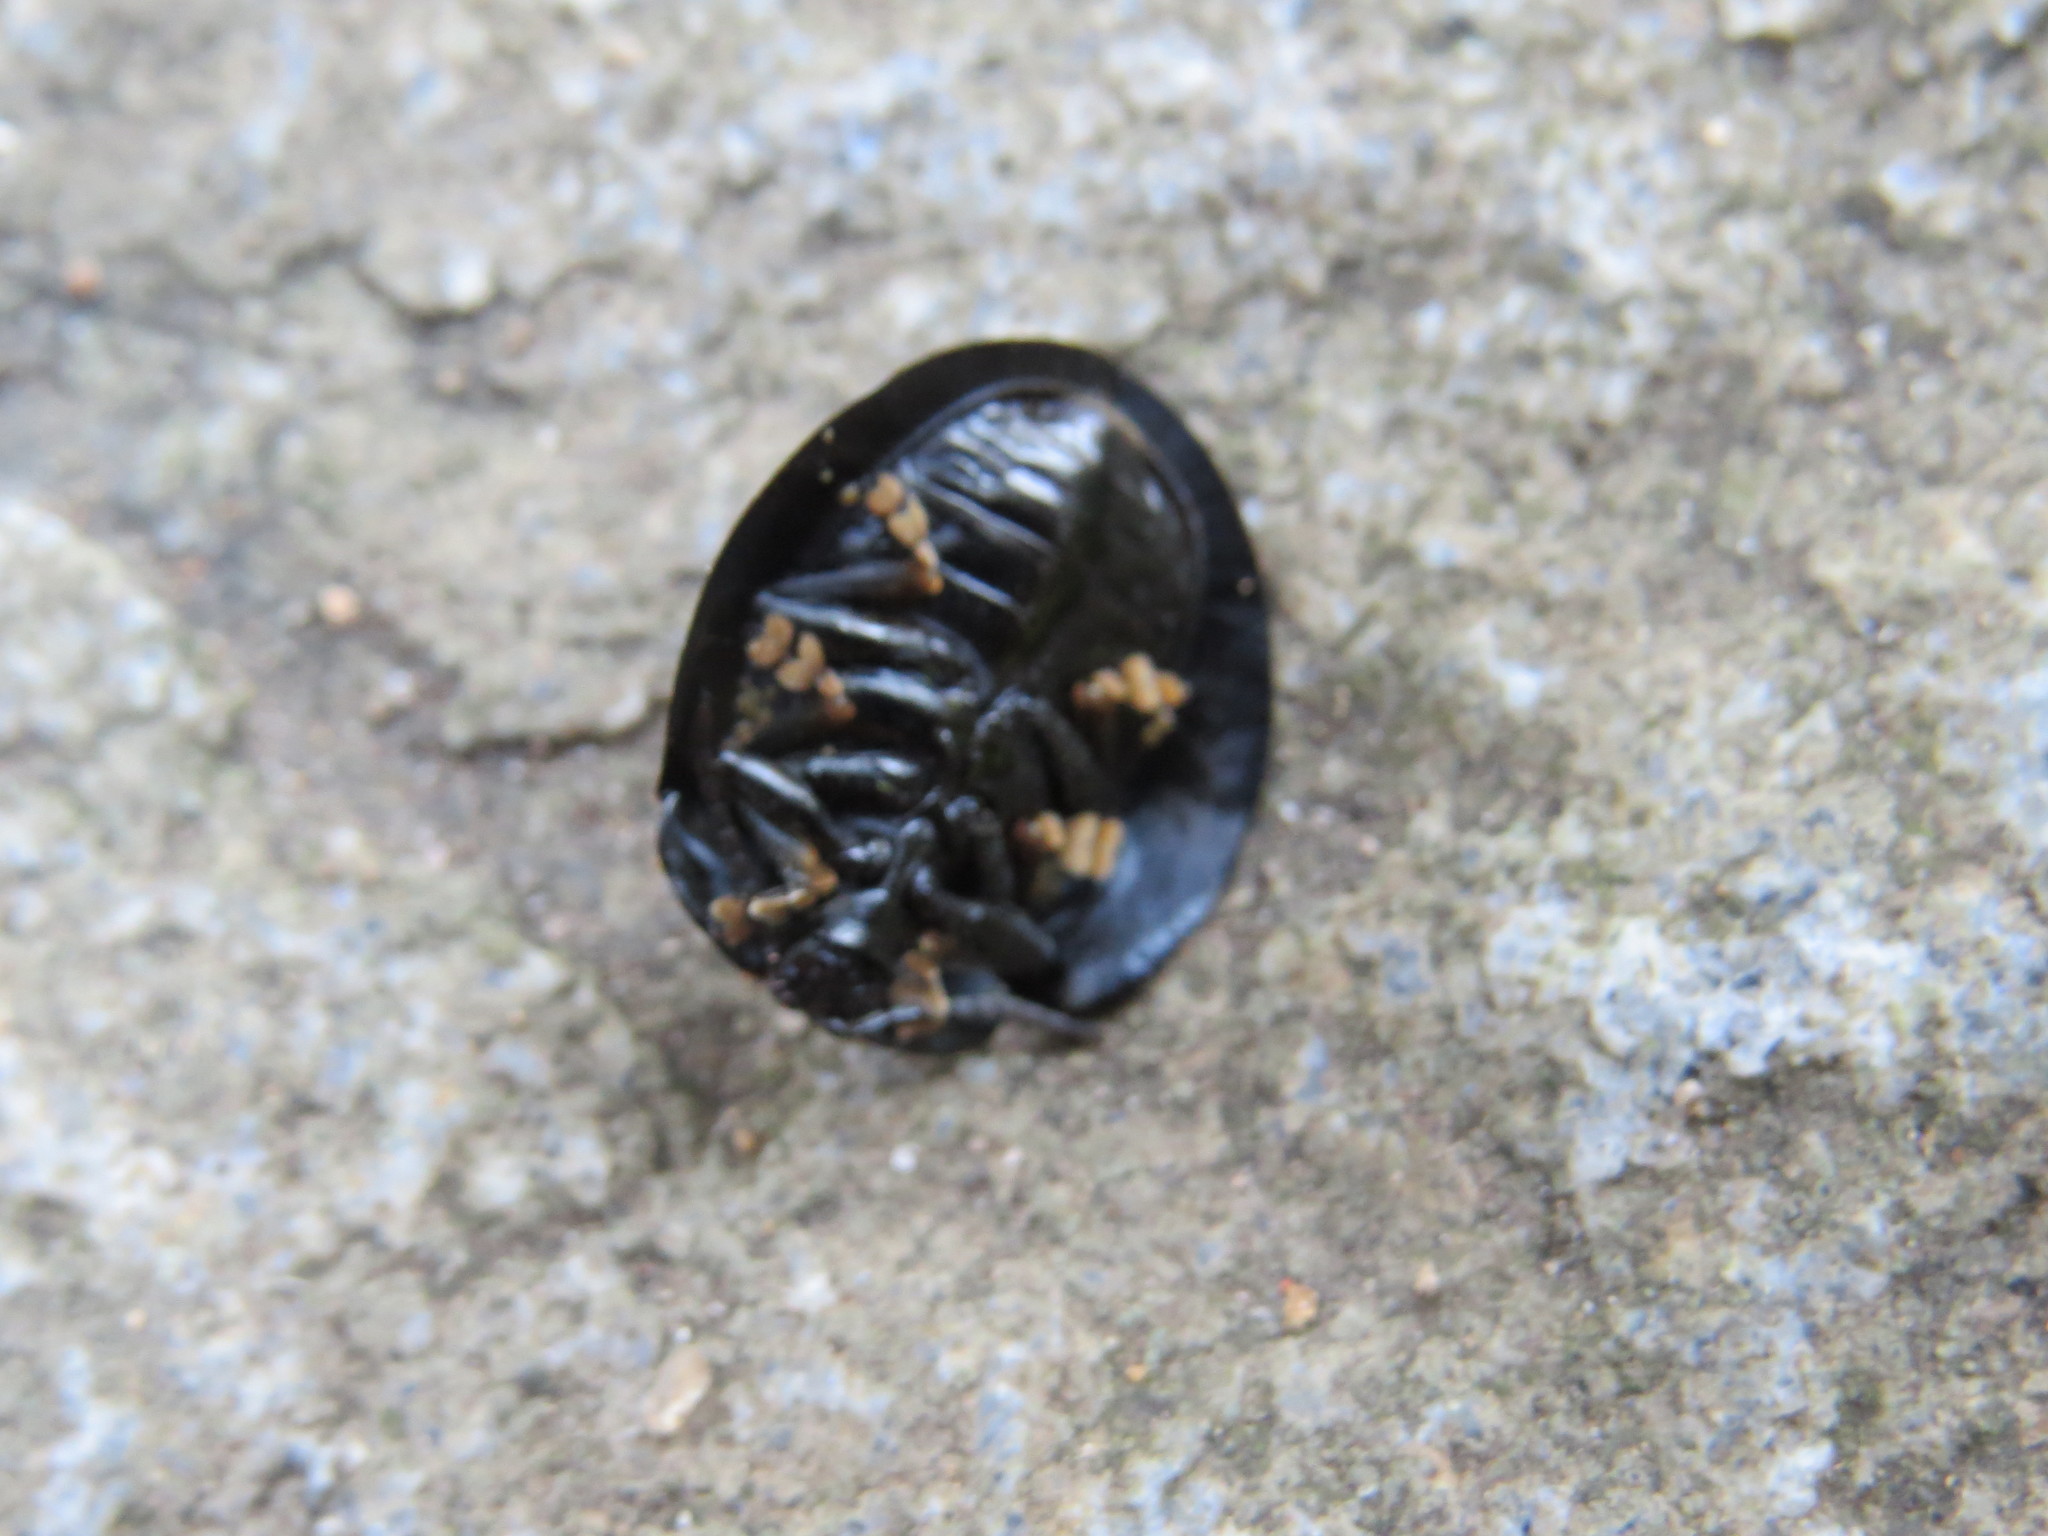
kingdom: Animalia
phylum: Arthropoda
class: Insecta
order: Coleoptera
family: Chrysomelidae
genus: Stolas
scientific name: Stolas fasciculata
